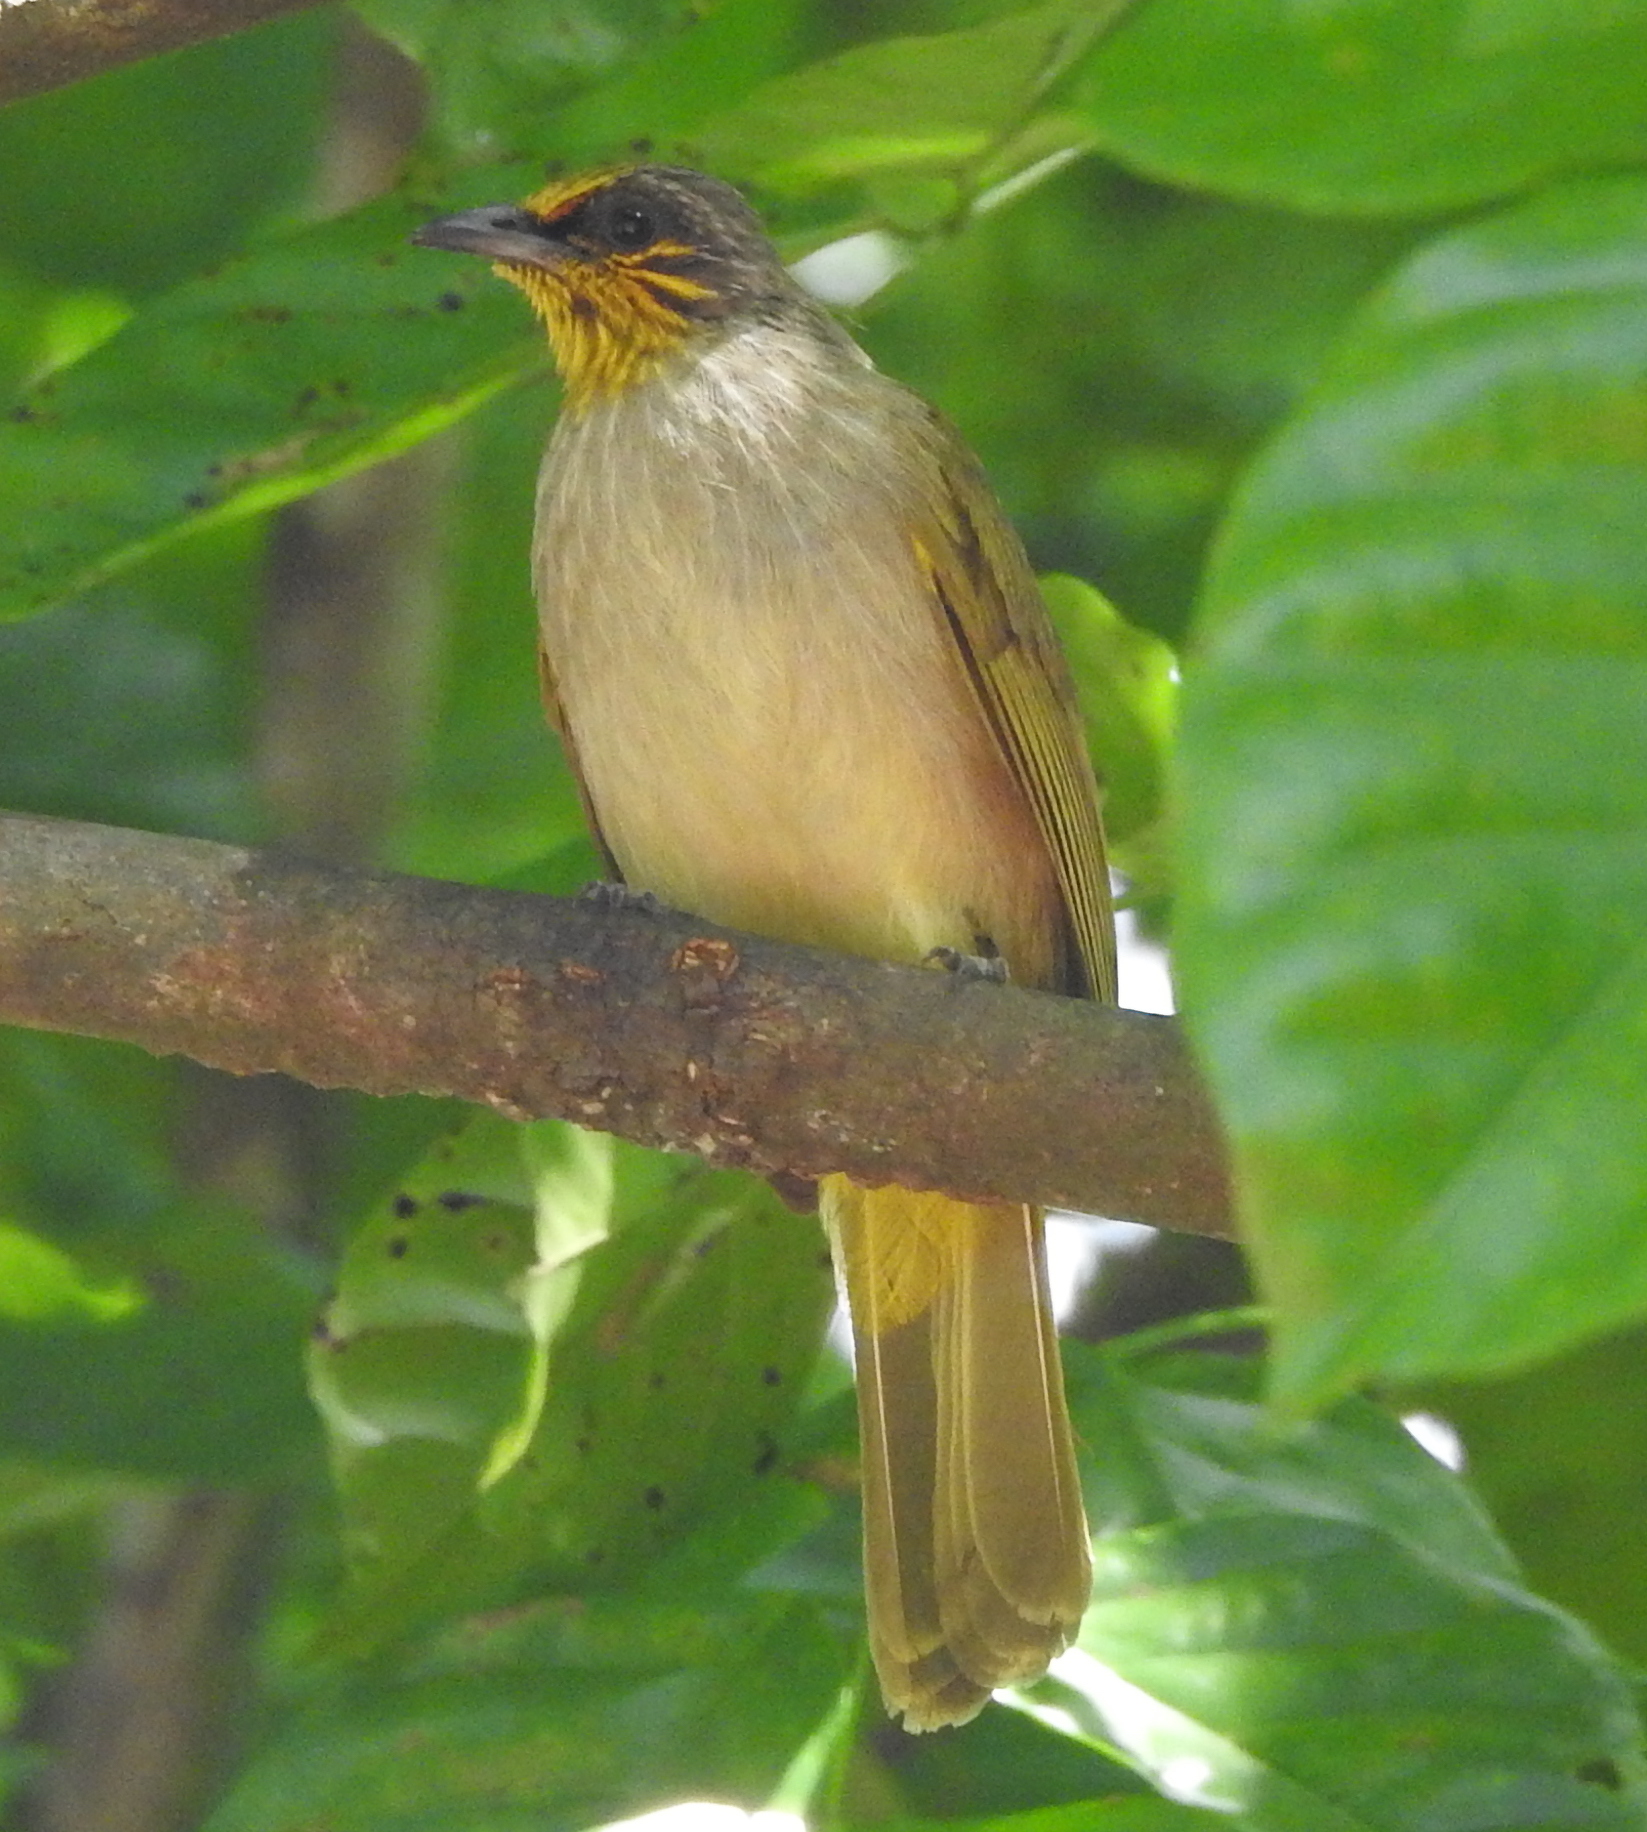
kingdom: Animalia
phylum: Chordata
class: Aves
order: Passeriformes
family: Pycnonotidae
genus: Pycnonotus
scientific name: Pycnonotus finlaysoni
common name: Stripe-throated bulbul
